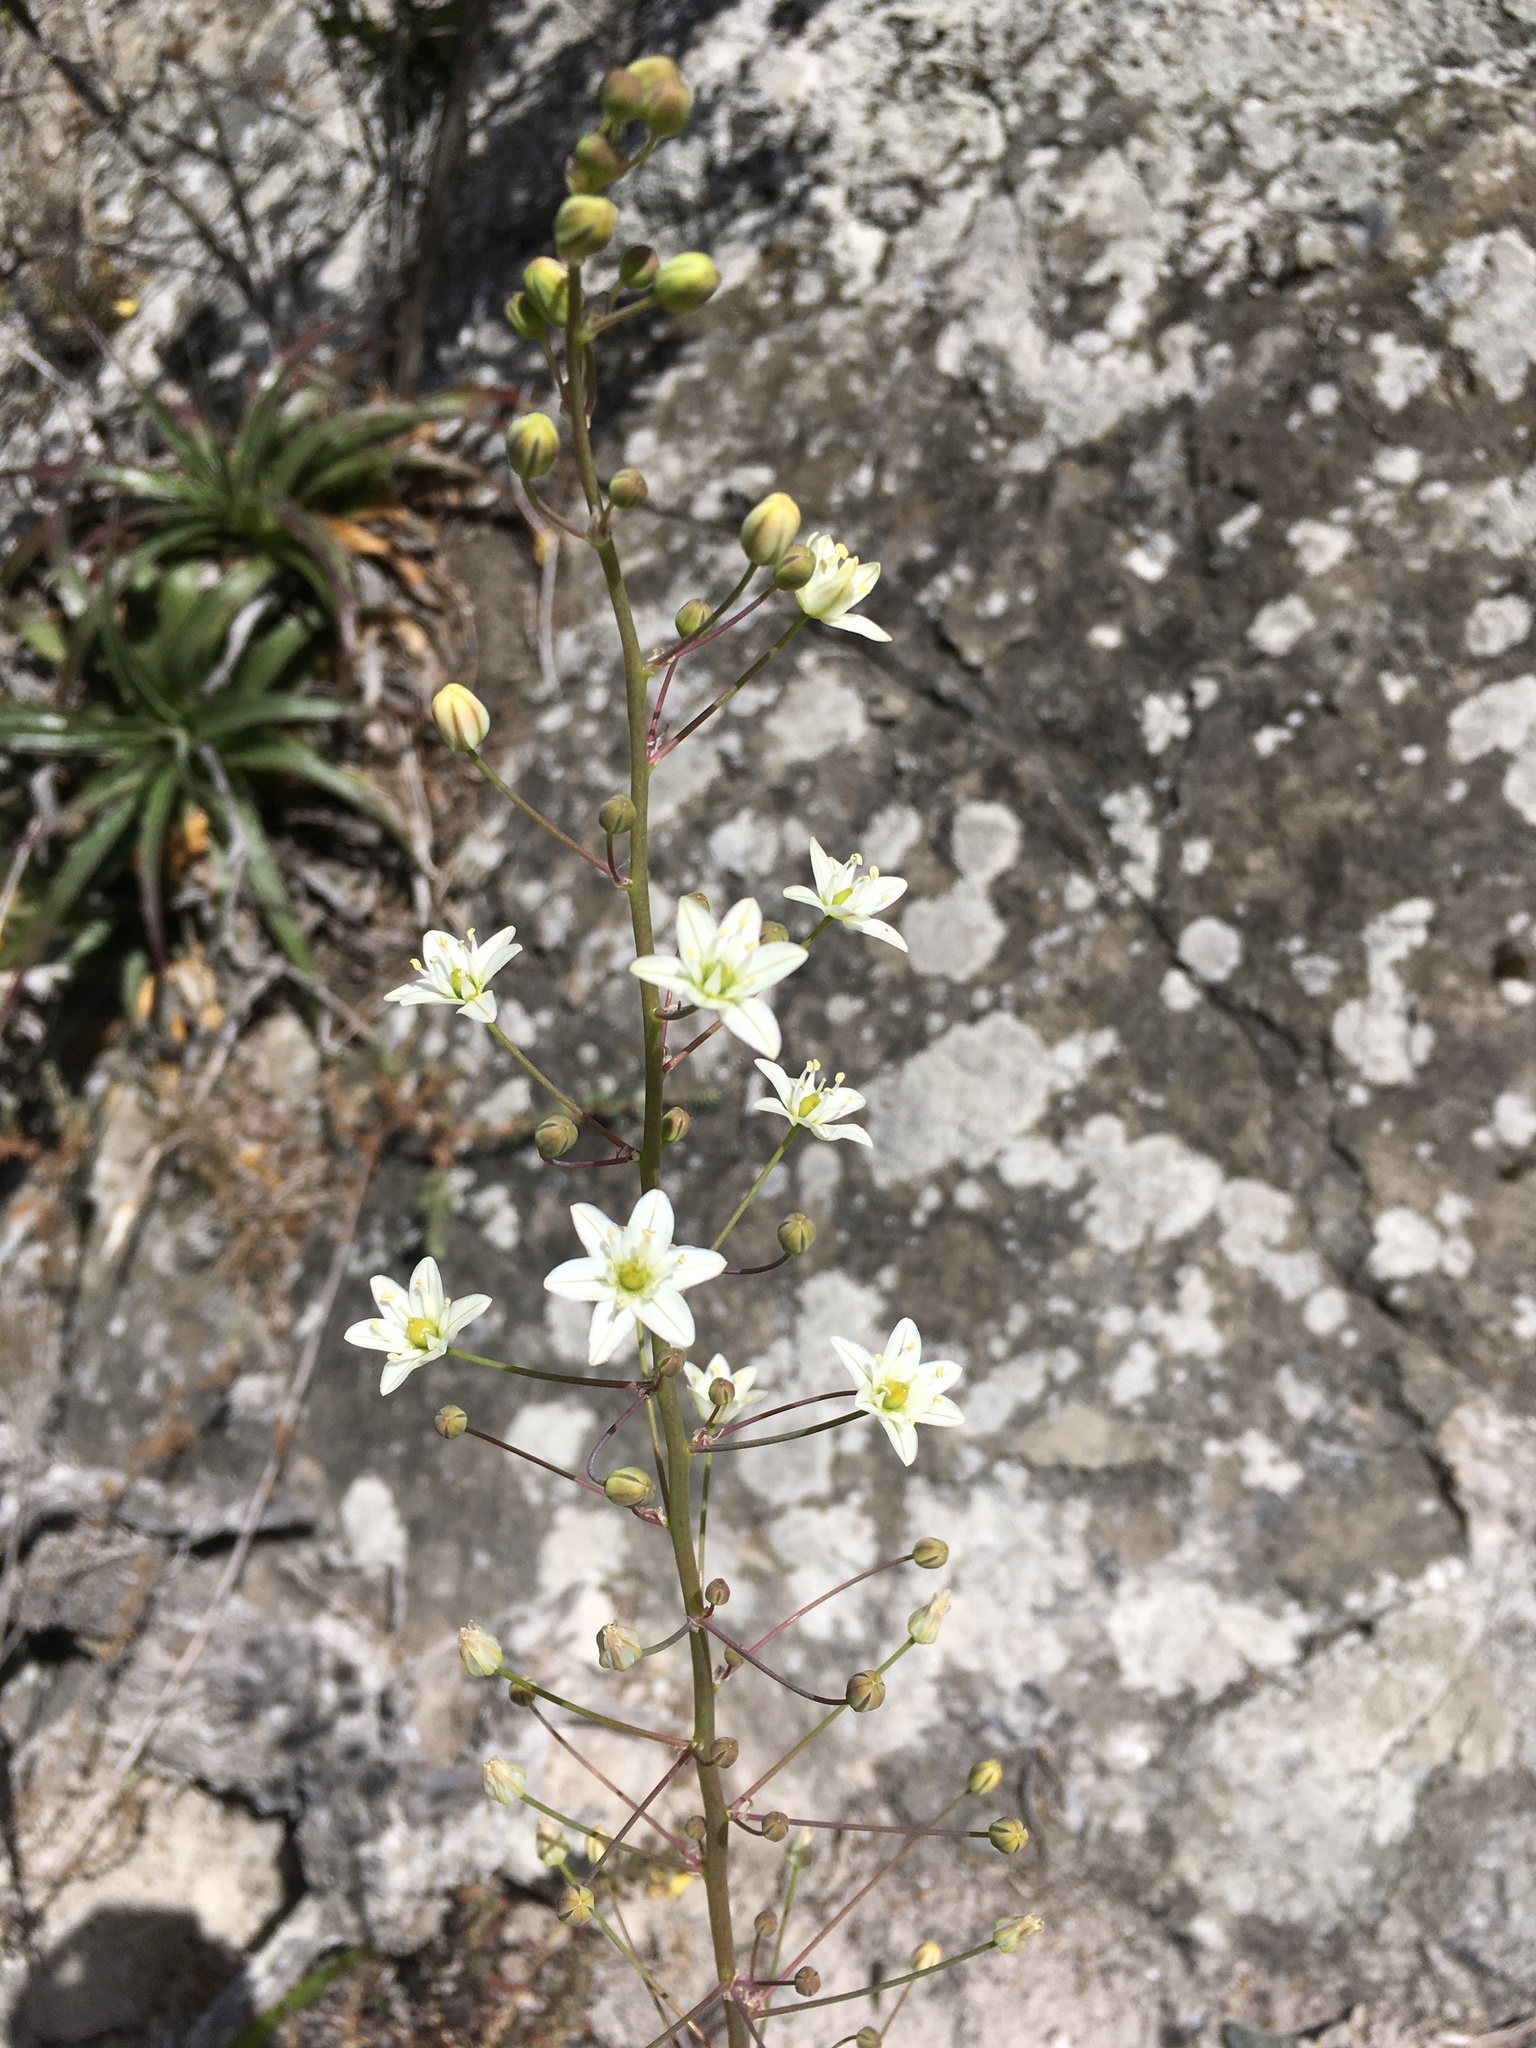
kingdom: Plantae
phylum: Tracheophyta
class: Liliopsida
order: Asparagales
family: Asparagaceae
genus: Oziroe
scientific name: Oziroe biflora
